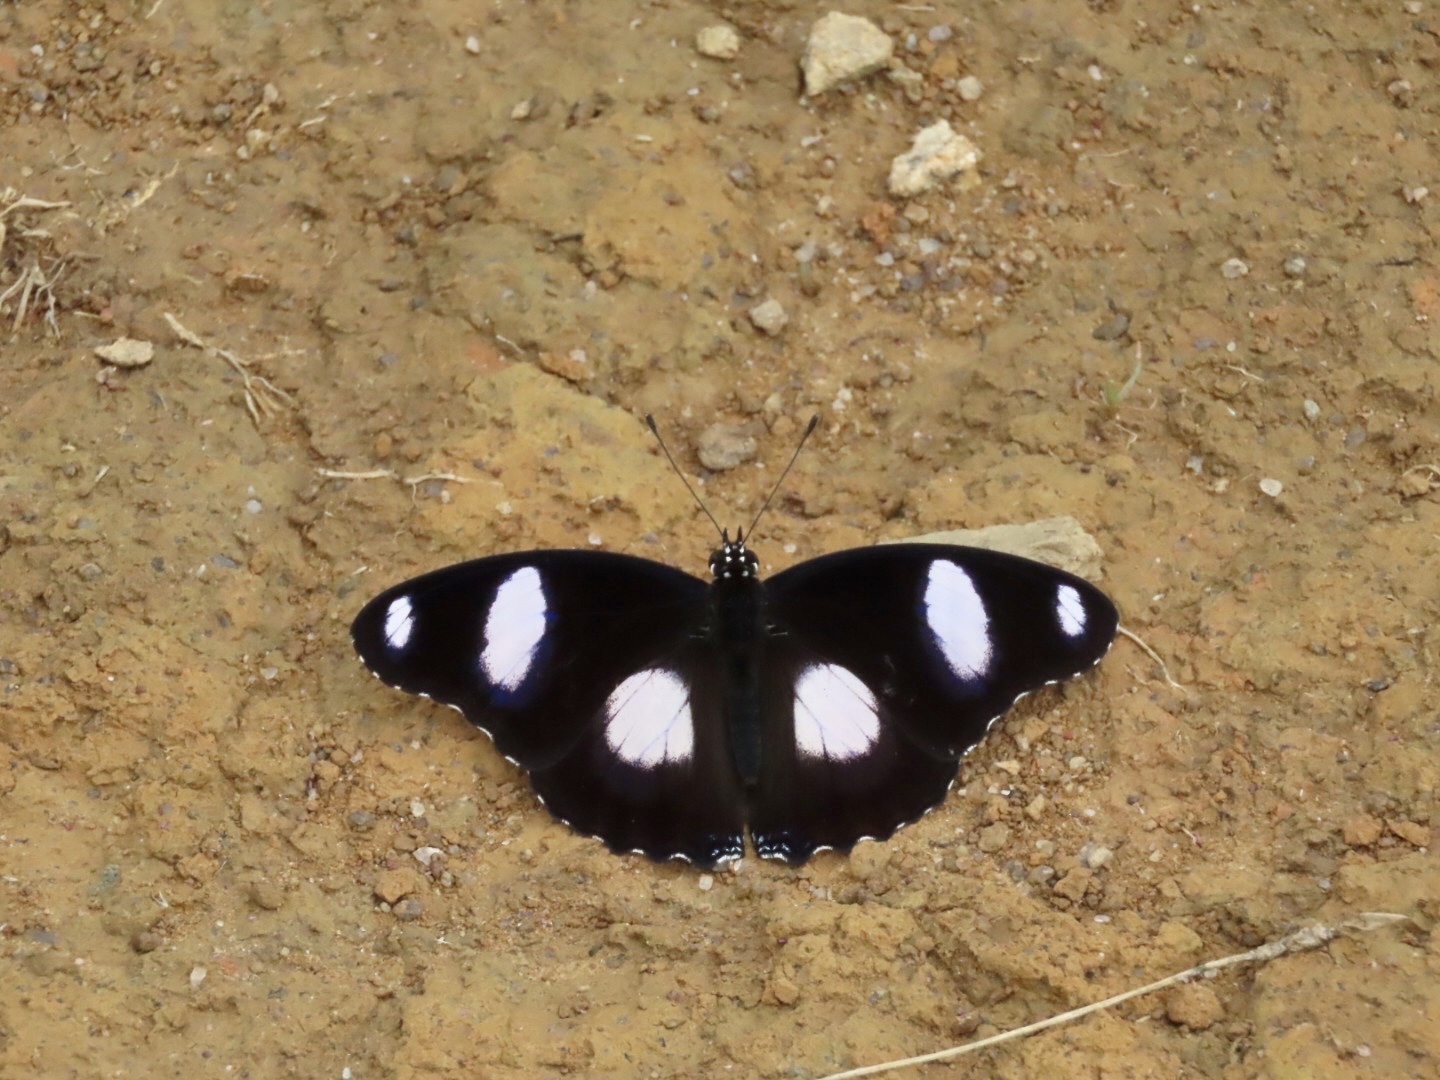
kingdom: Animalia
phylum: Arthropoda
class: Insecta
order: Lepidoptera
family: Nymphalidae
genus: Hypolimnas
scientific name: Hypolimnas misippus
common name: False plain tiger
